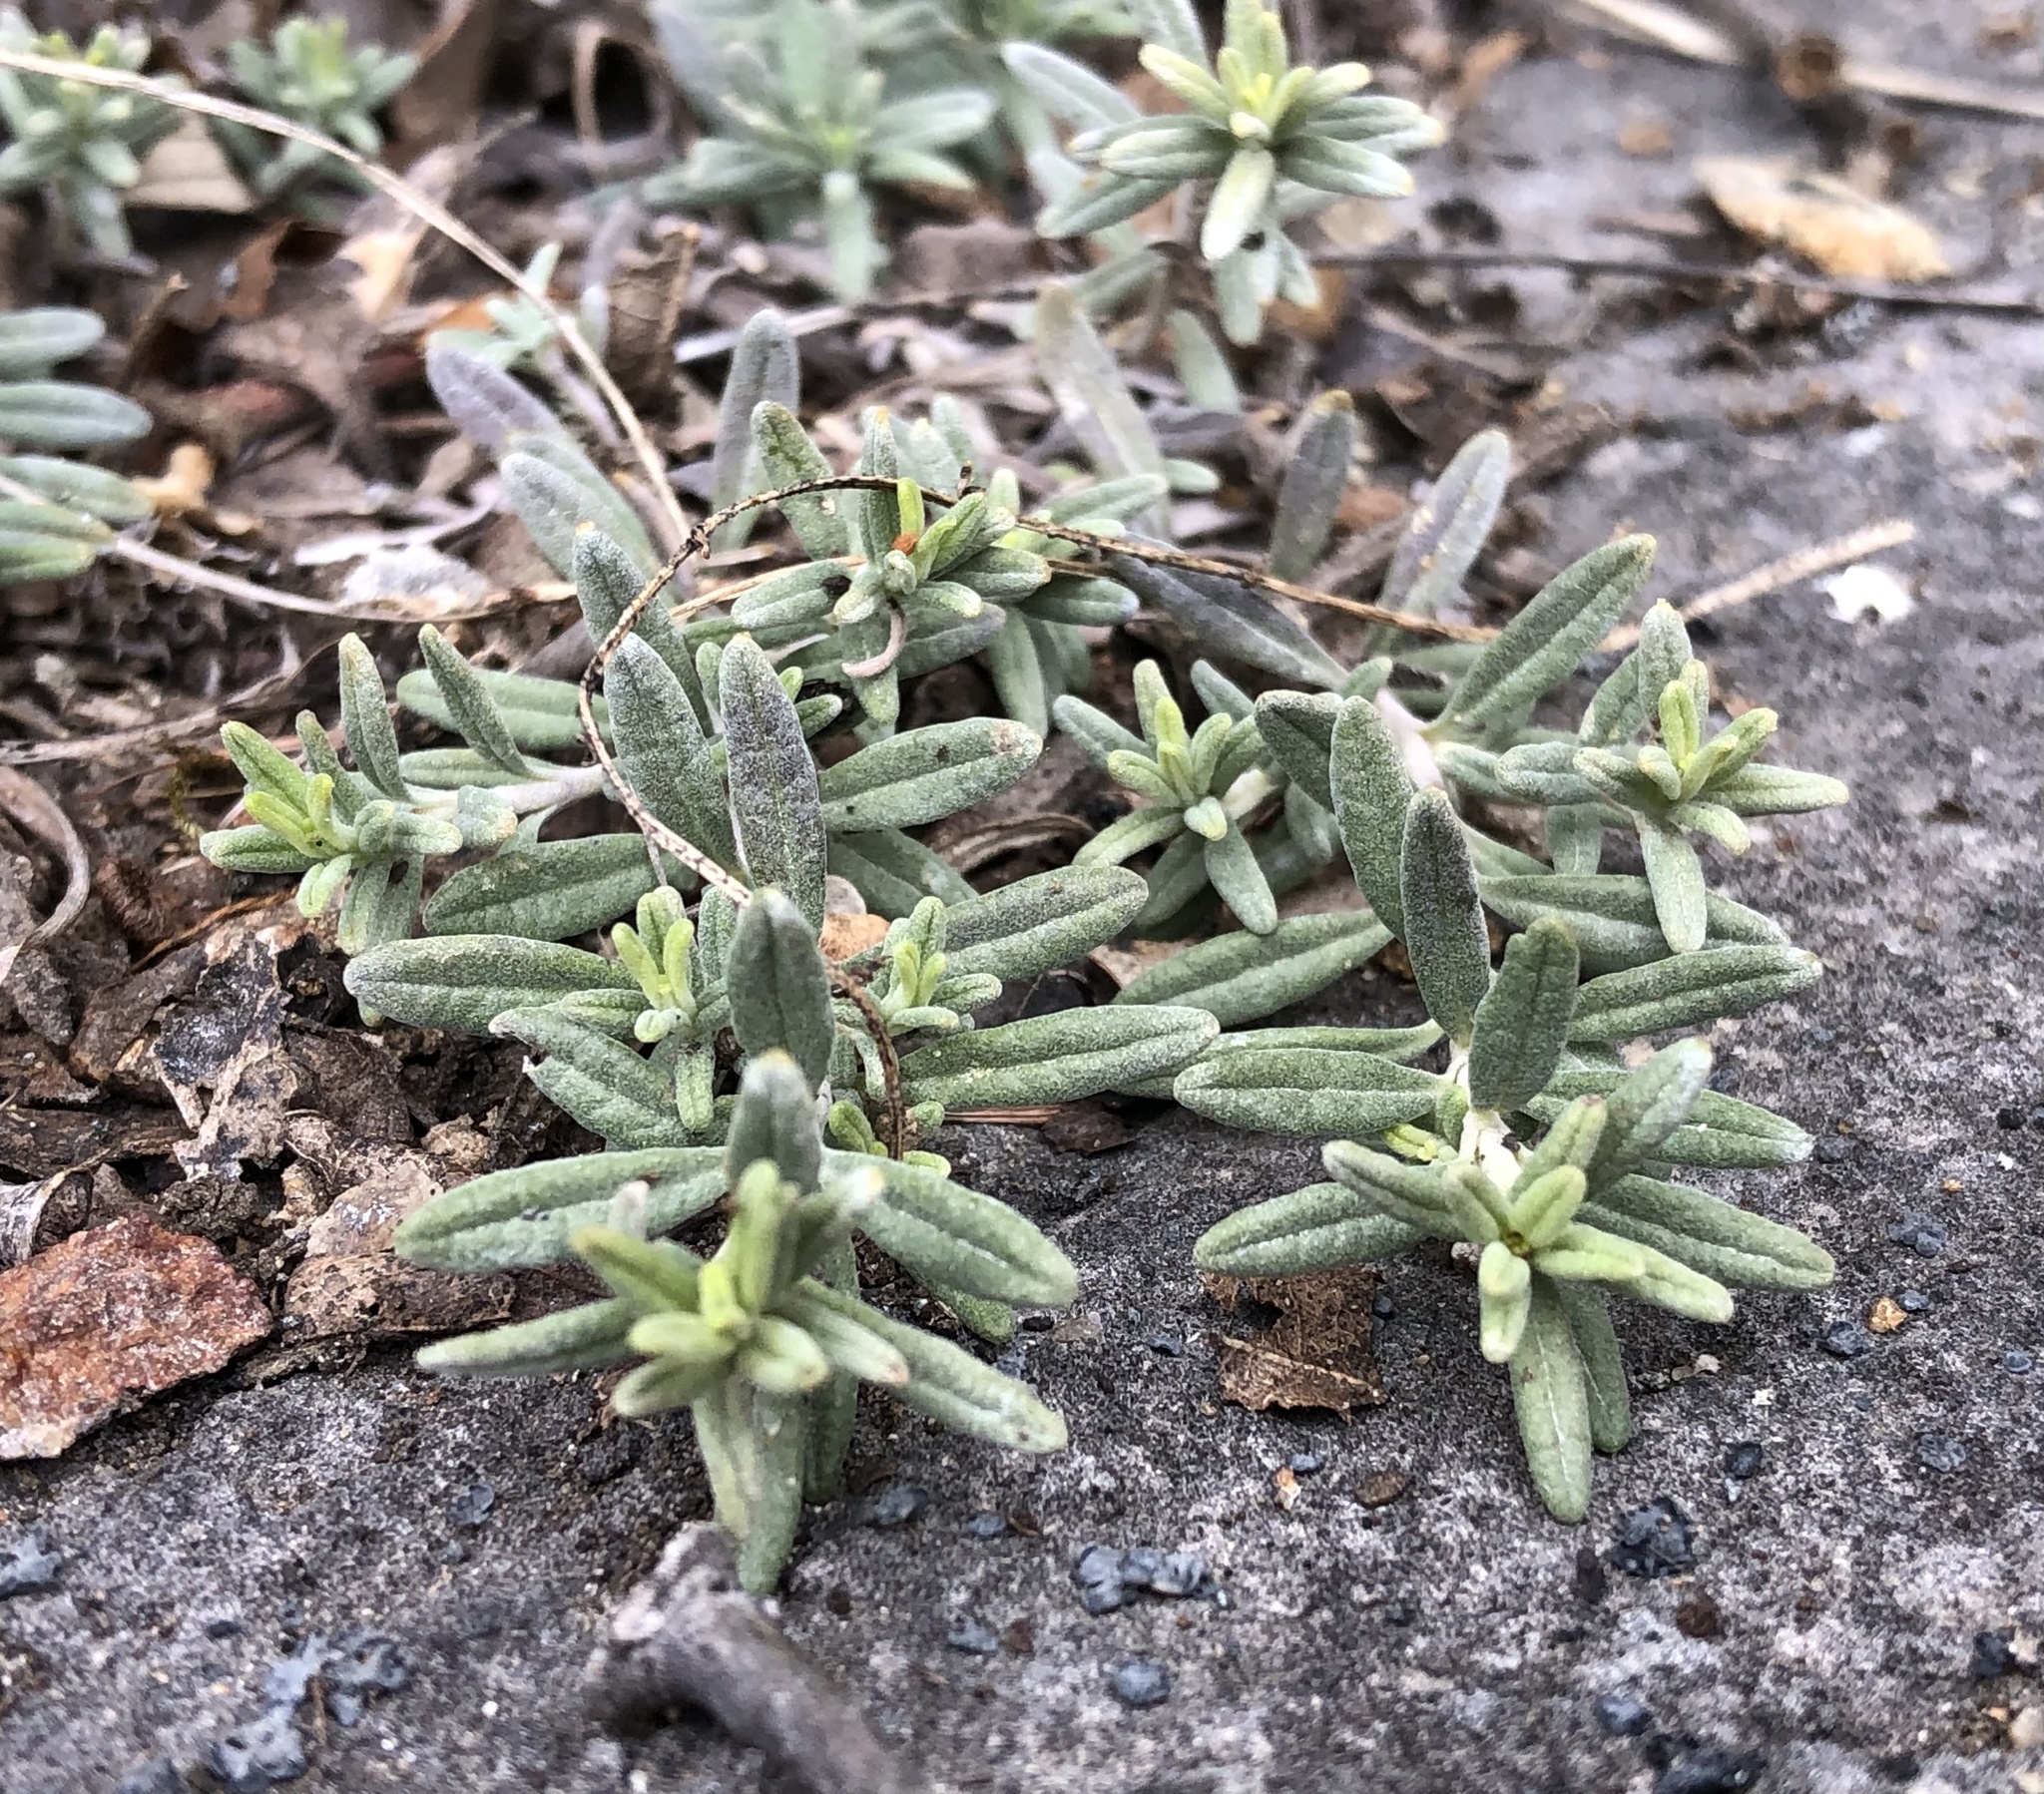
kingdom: Plantae
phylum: Tracheophyta
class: Magnoliopsida
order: Lamiales
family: Lamiaceae
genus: Teucrium
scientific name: Teucrium montanum
